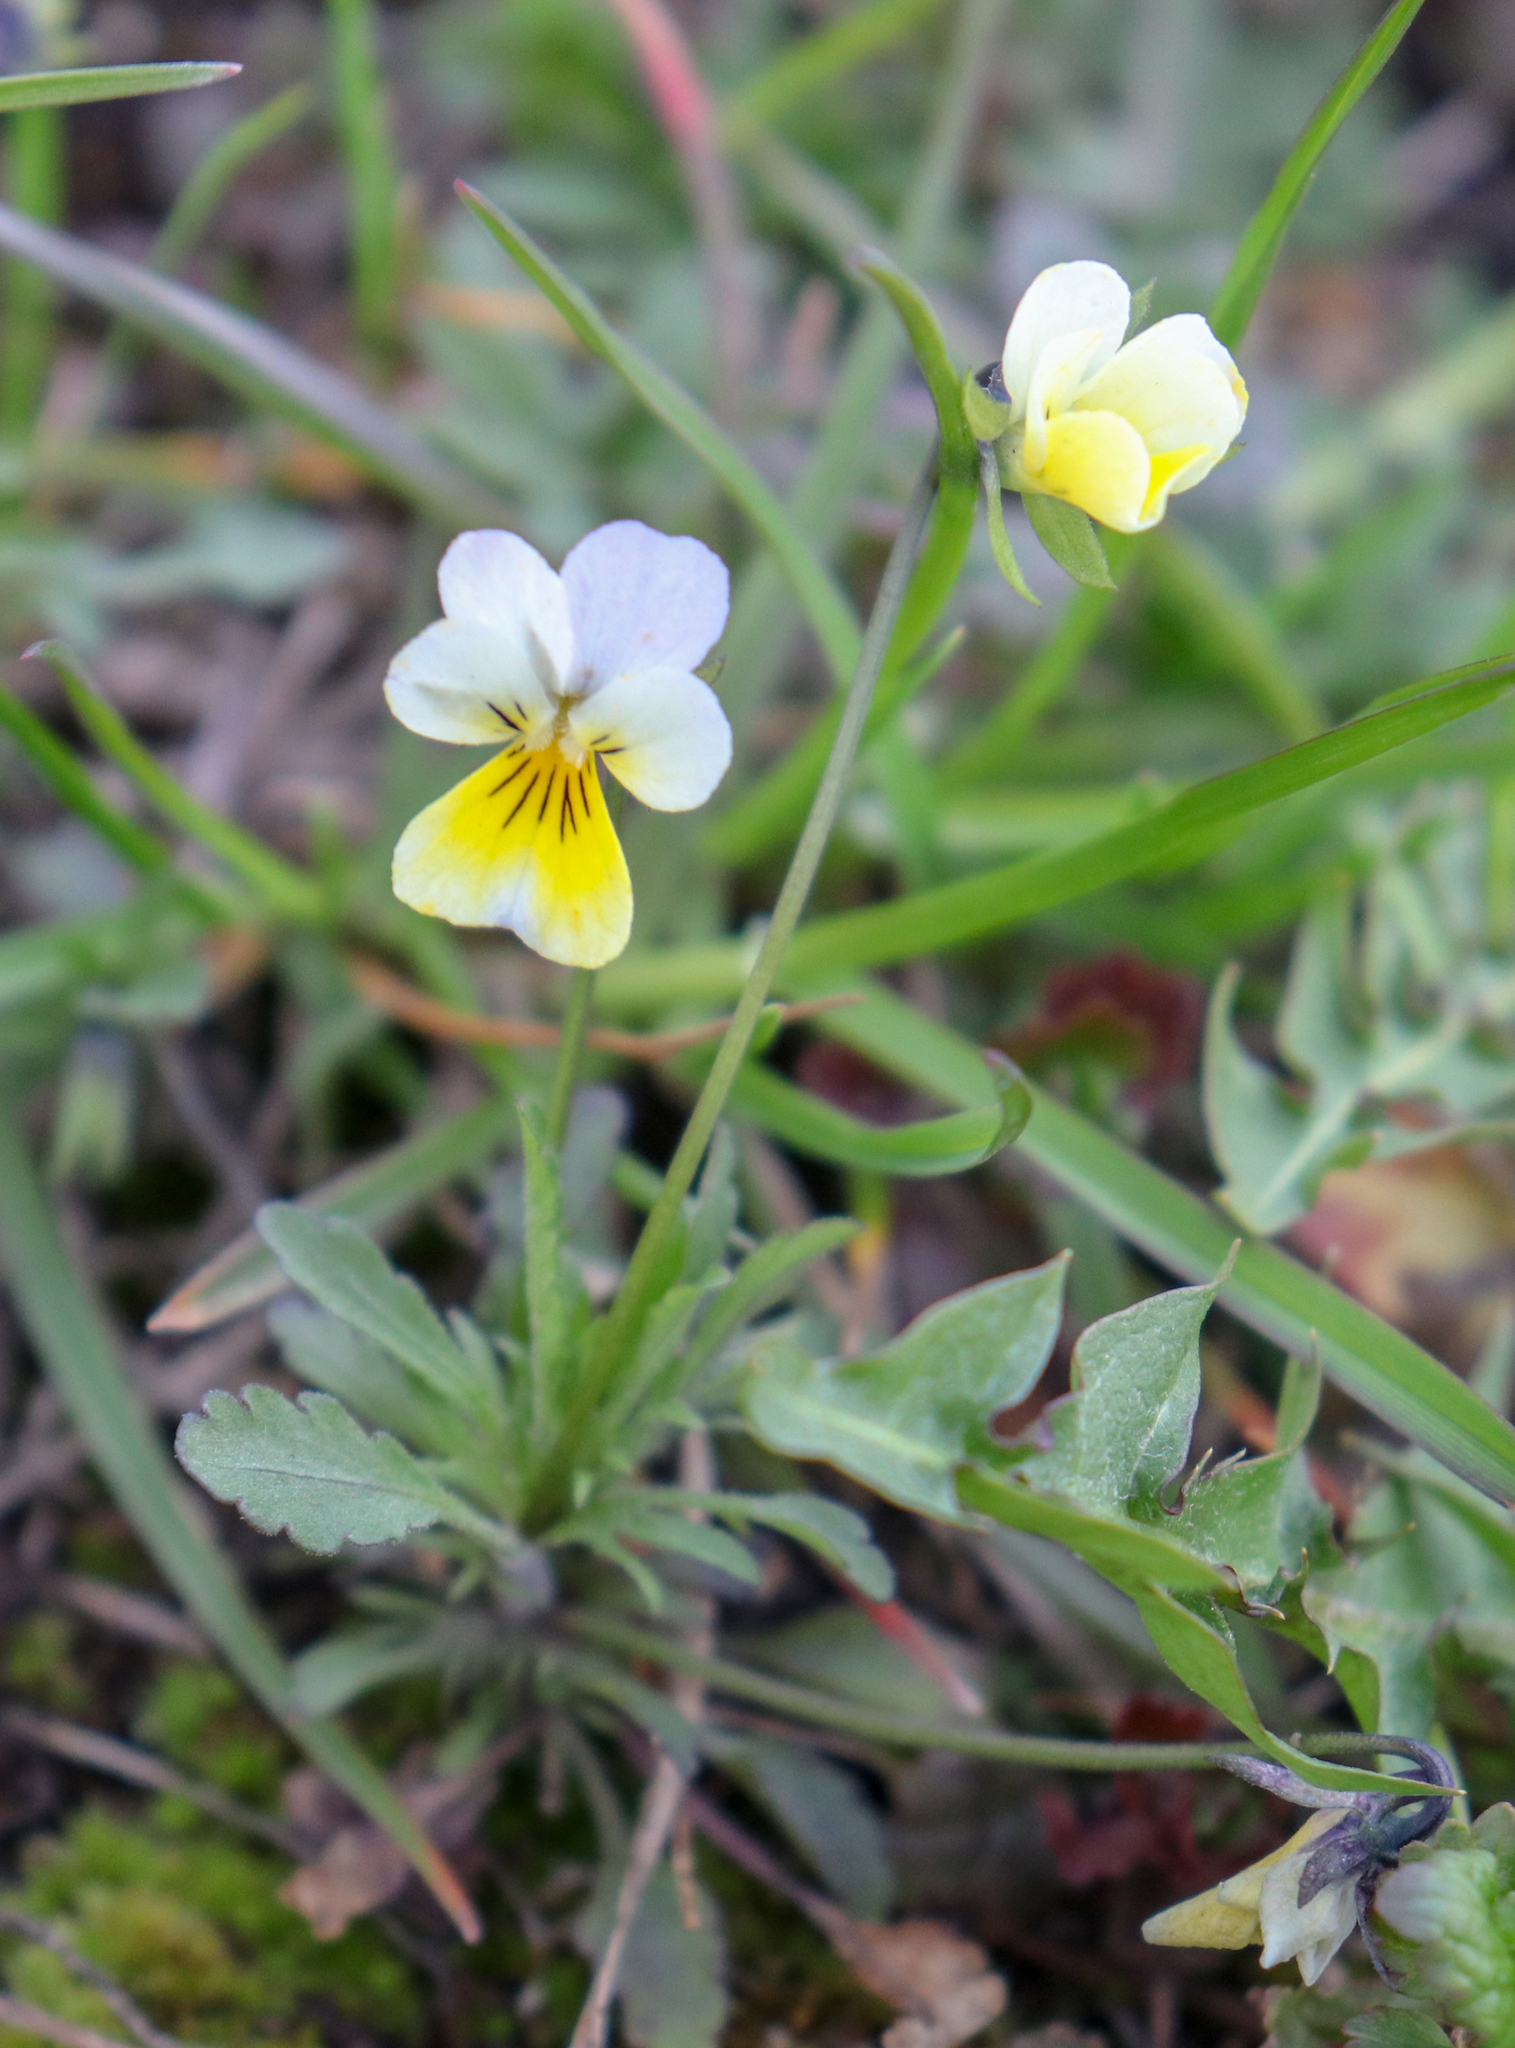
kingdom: Plantae
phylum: Tracheophyta
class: Magnoliopsida
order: Malpighiales
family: Violaceae
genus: Viola
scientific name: Viola contempta
